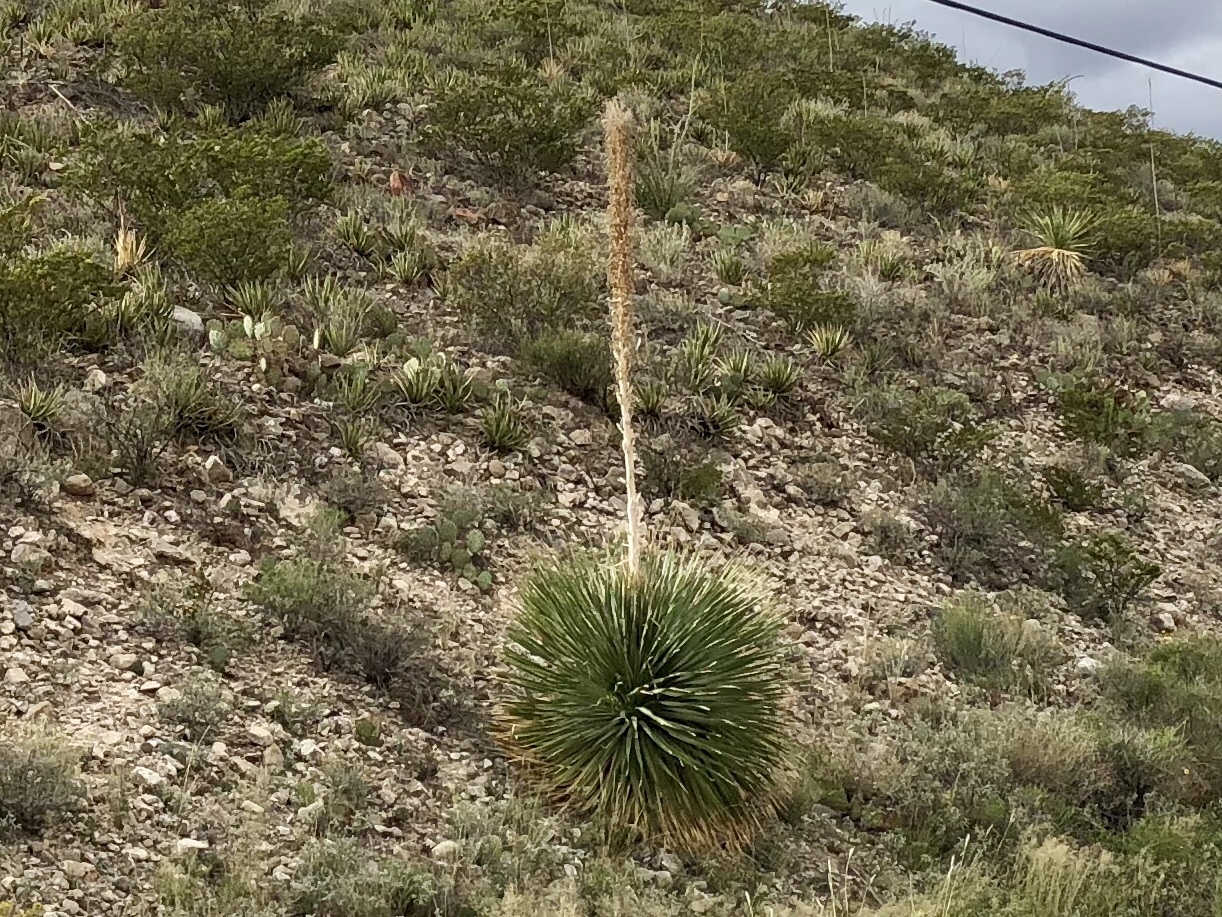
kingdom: Plantae
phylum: Tracheophyta
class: Liliopsida
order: Asparagales
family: Asparagaceae
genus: Dasylirion
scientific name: Dasylirion wheeleri
